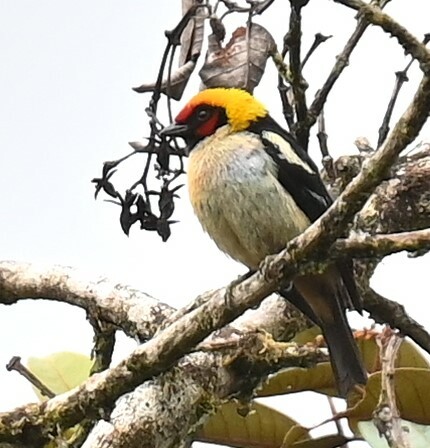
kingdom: Animalia
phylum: Chordata
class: Aves
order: Passeriformes
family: Thraupidae
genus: Tangara
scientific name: Tangara parzudakii
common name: Flame-faced tanager
